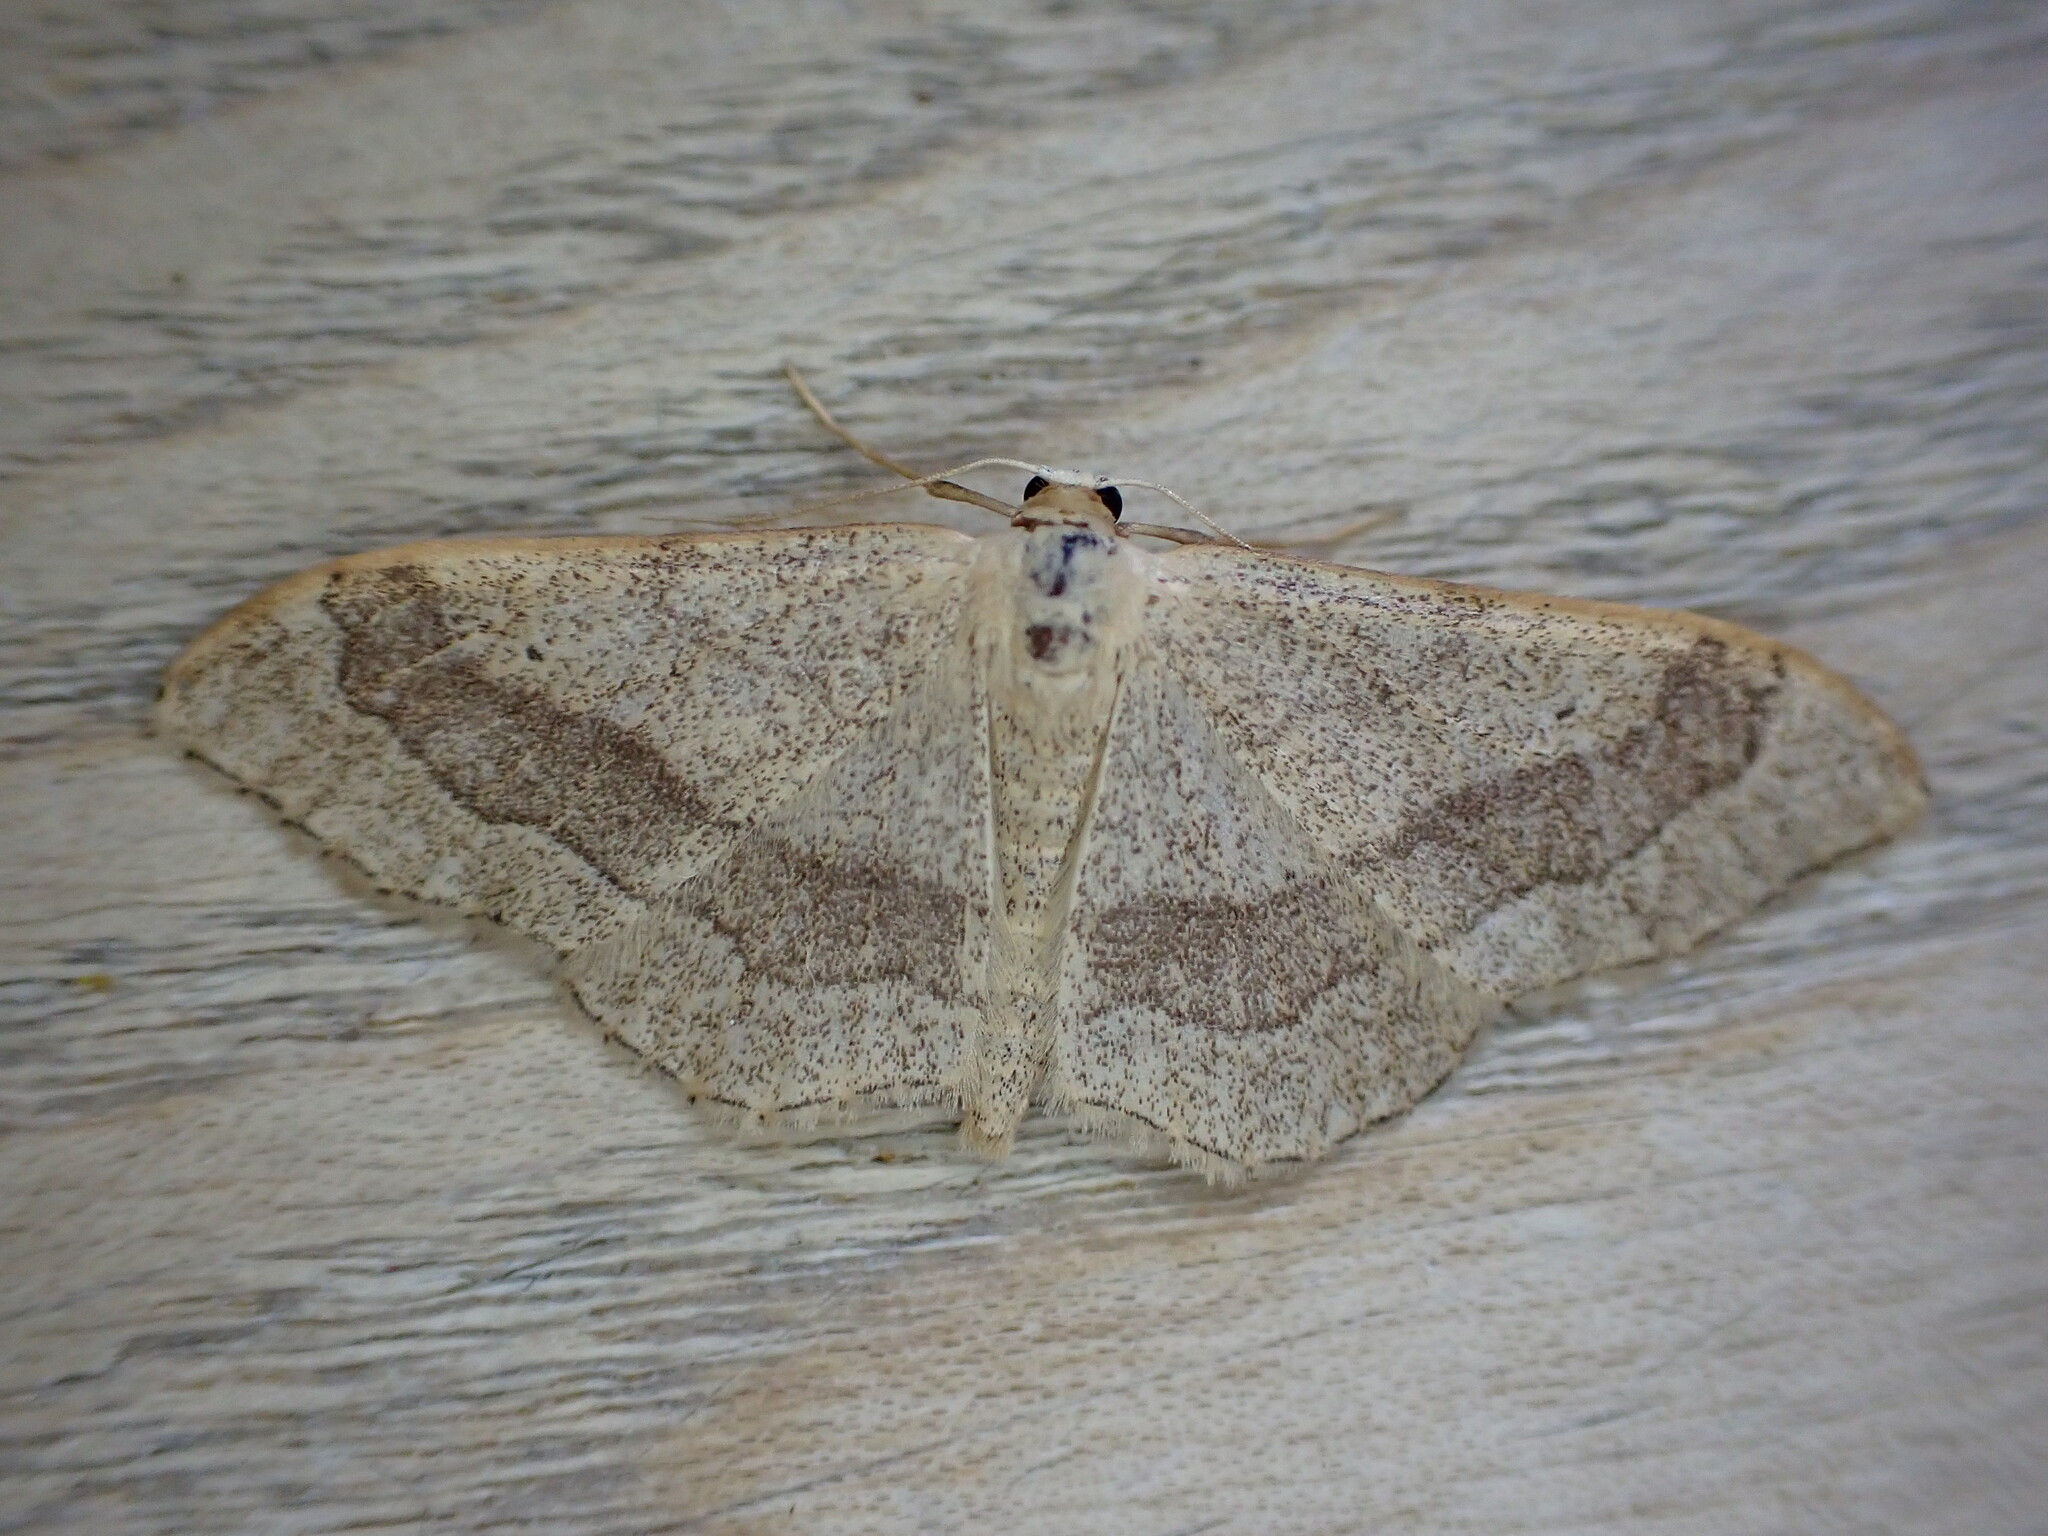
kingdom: Animalia
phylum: Arthropoda
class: Insecta
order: Lepidoptera
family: Geometridae
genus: Idaea
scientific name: Idaea aversata
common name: Riband wave
